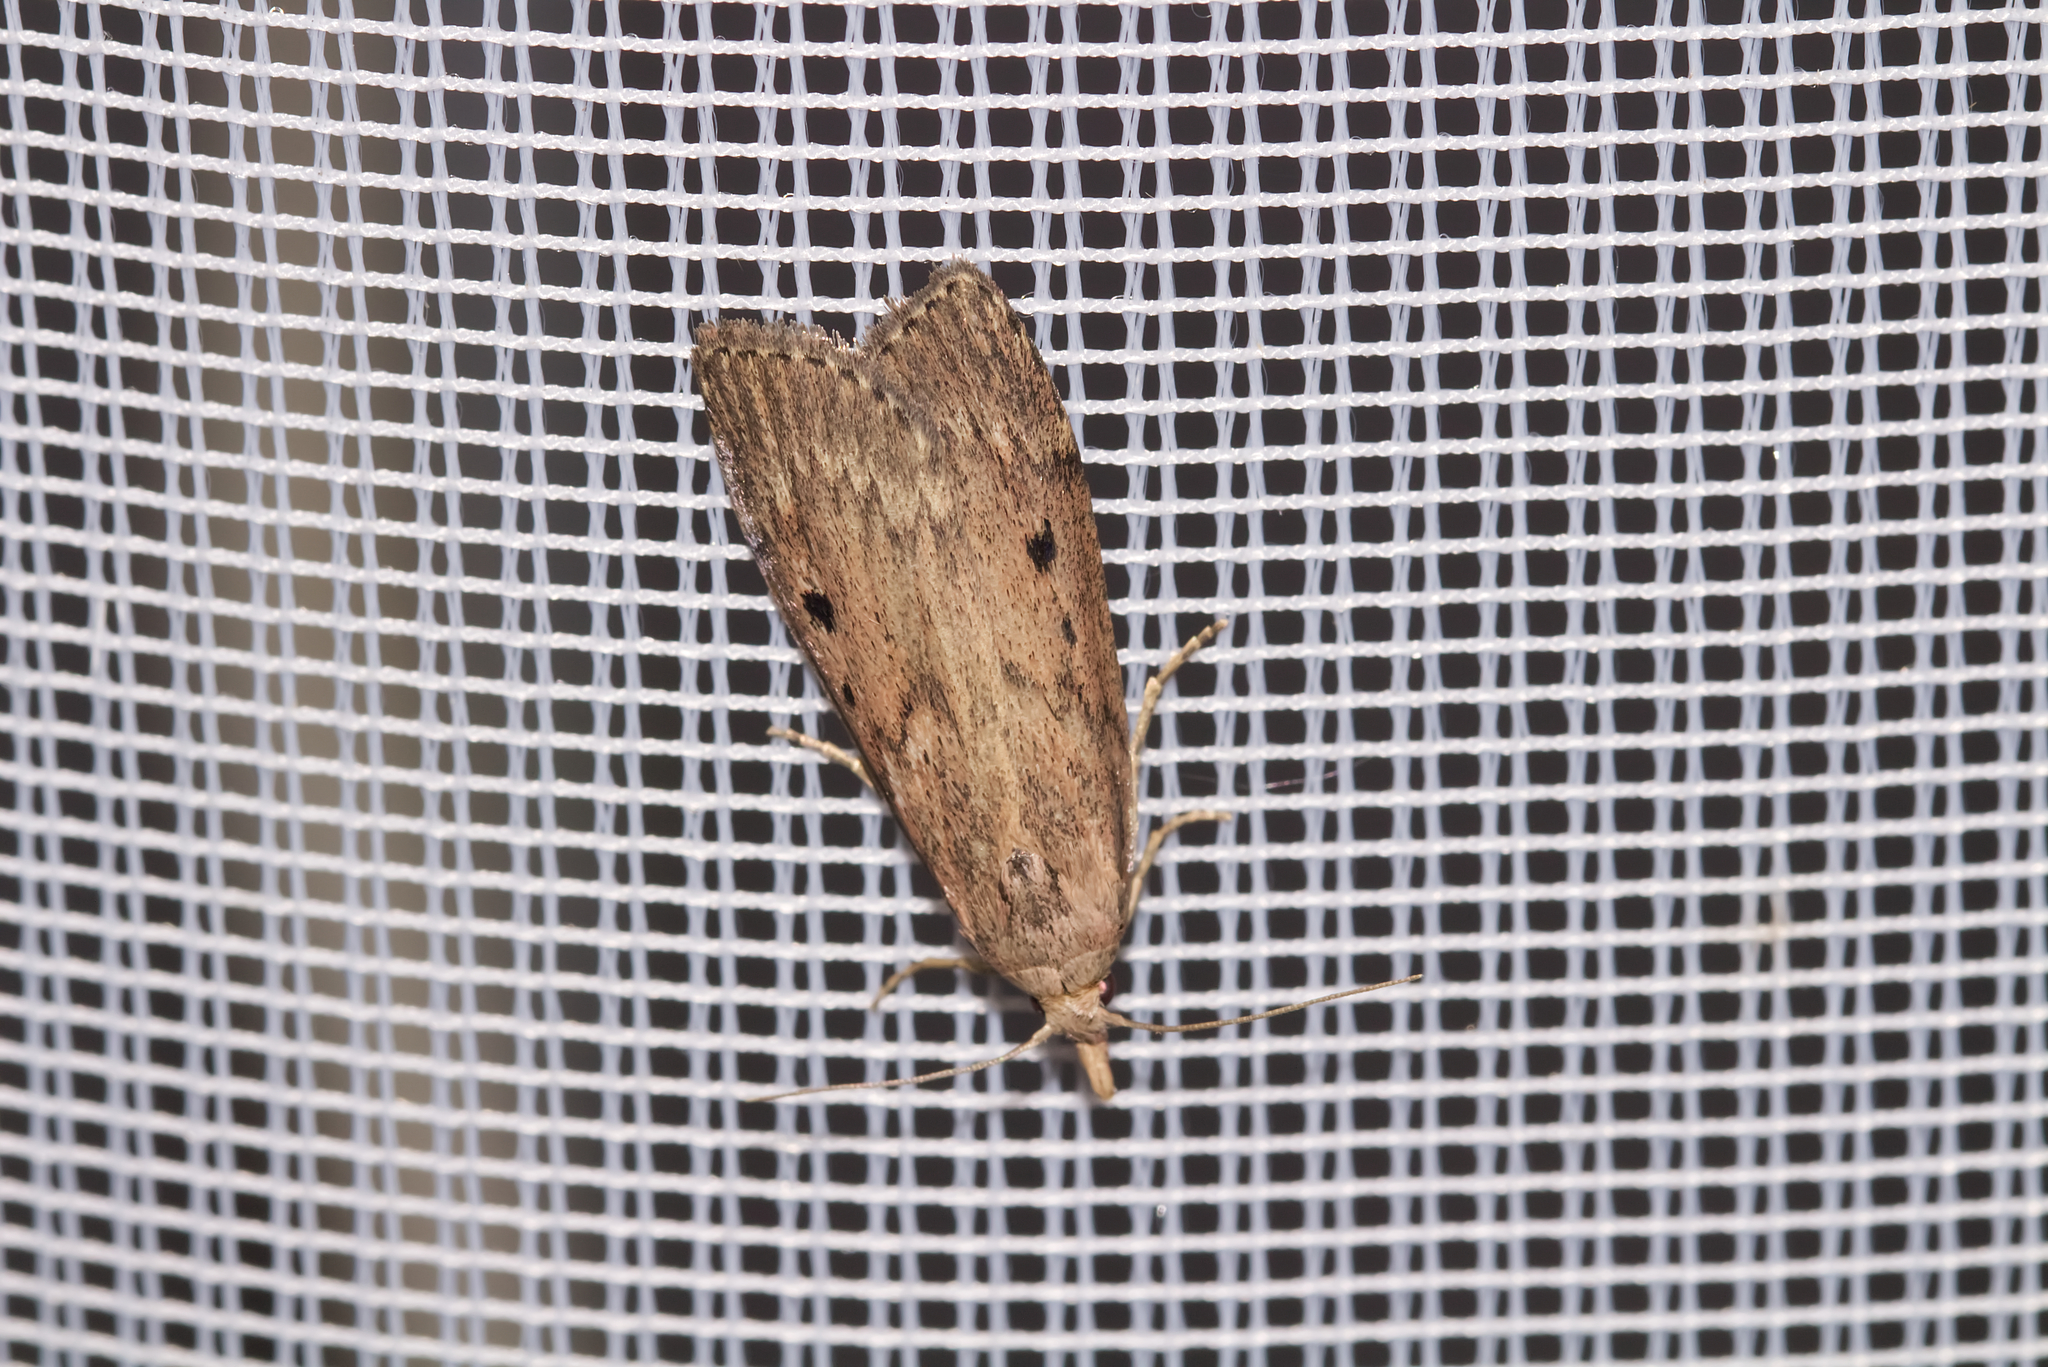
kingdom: Animalia
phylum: Arthropoda
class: Insecta
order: Lepidoptera
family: Pyralidae
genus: Aphomia
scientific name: Aphomia sociella
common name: Bee moth
